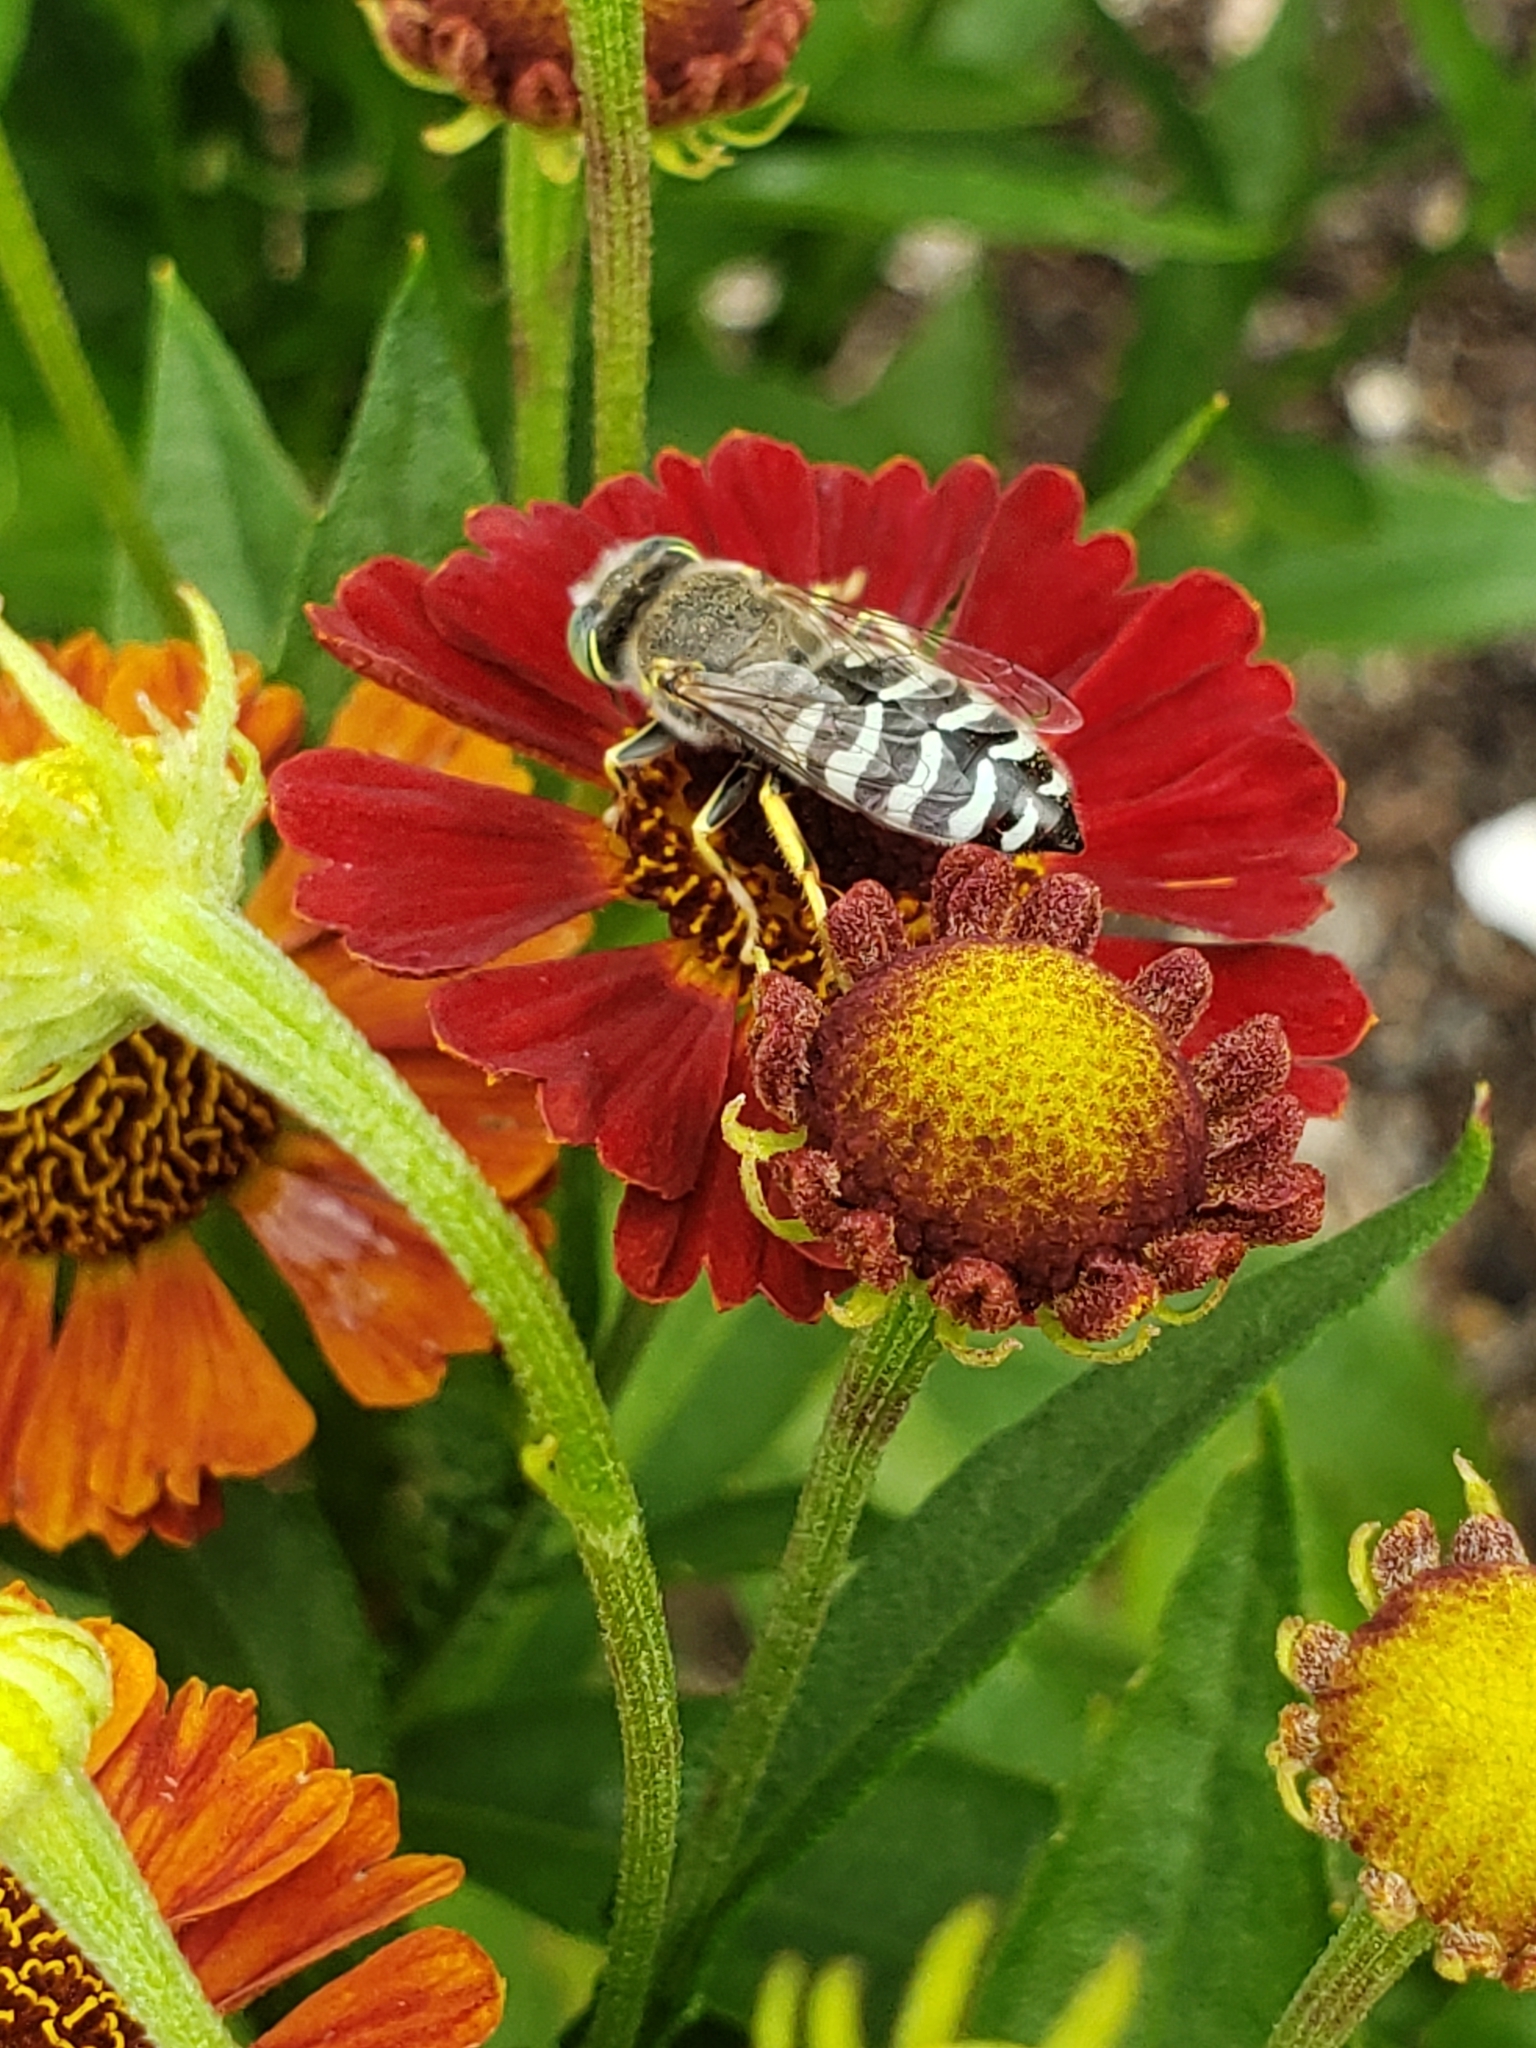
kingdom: Animalia
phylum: Arthropoda
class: Insecta
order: Hymenoptera
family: Crabronidae
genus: Bembix
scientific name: Bembix americana
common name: American sand wasp
